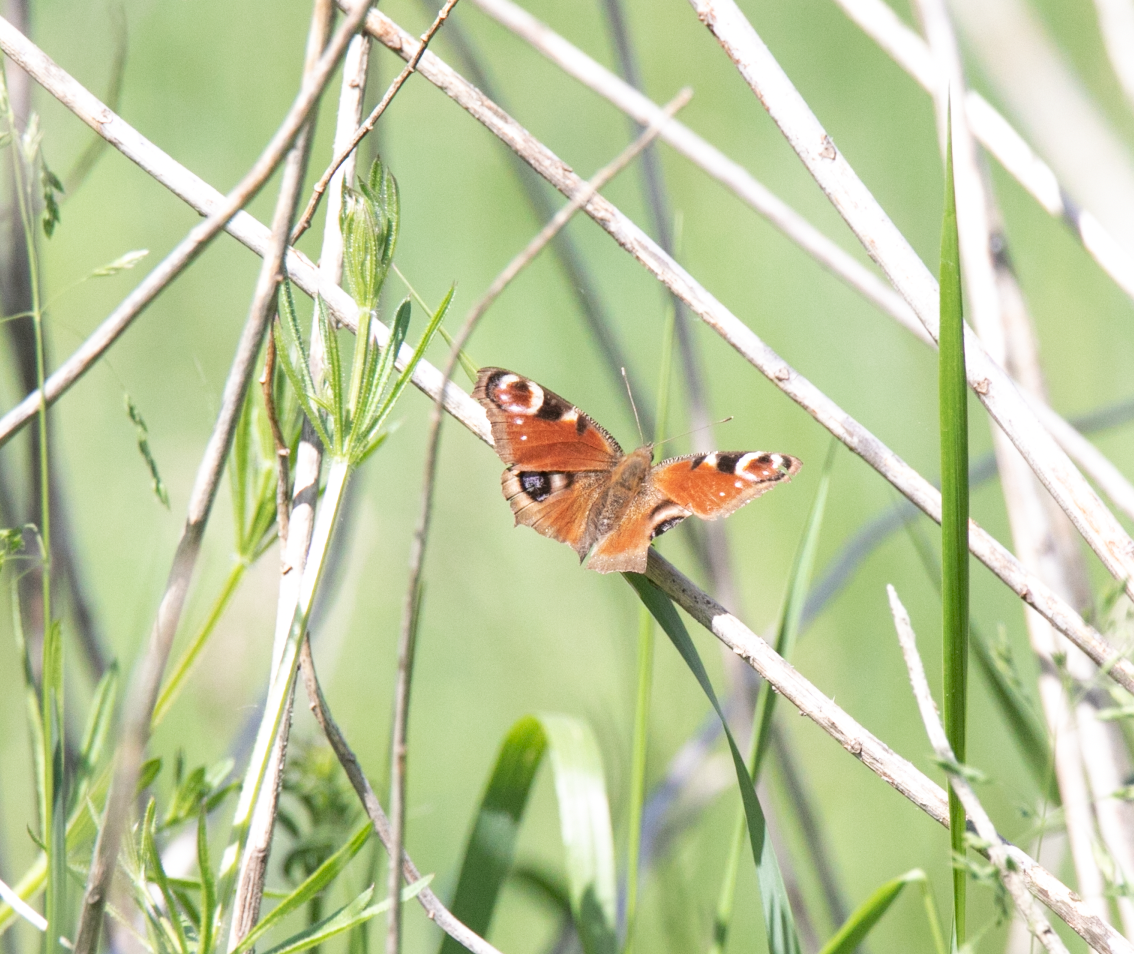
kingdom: Animalia
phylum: Arthropoda
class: Insecta
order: Lepidoptera
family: Nymphalidae
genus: Aglais
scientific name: Aglais io
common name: Peacock
